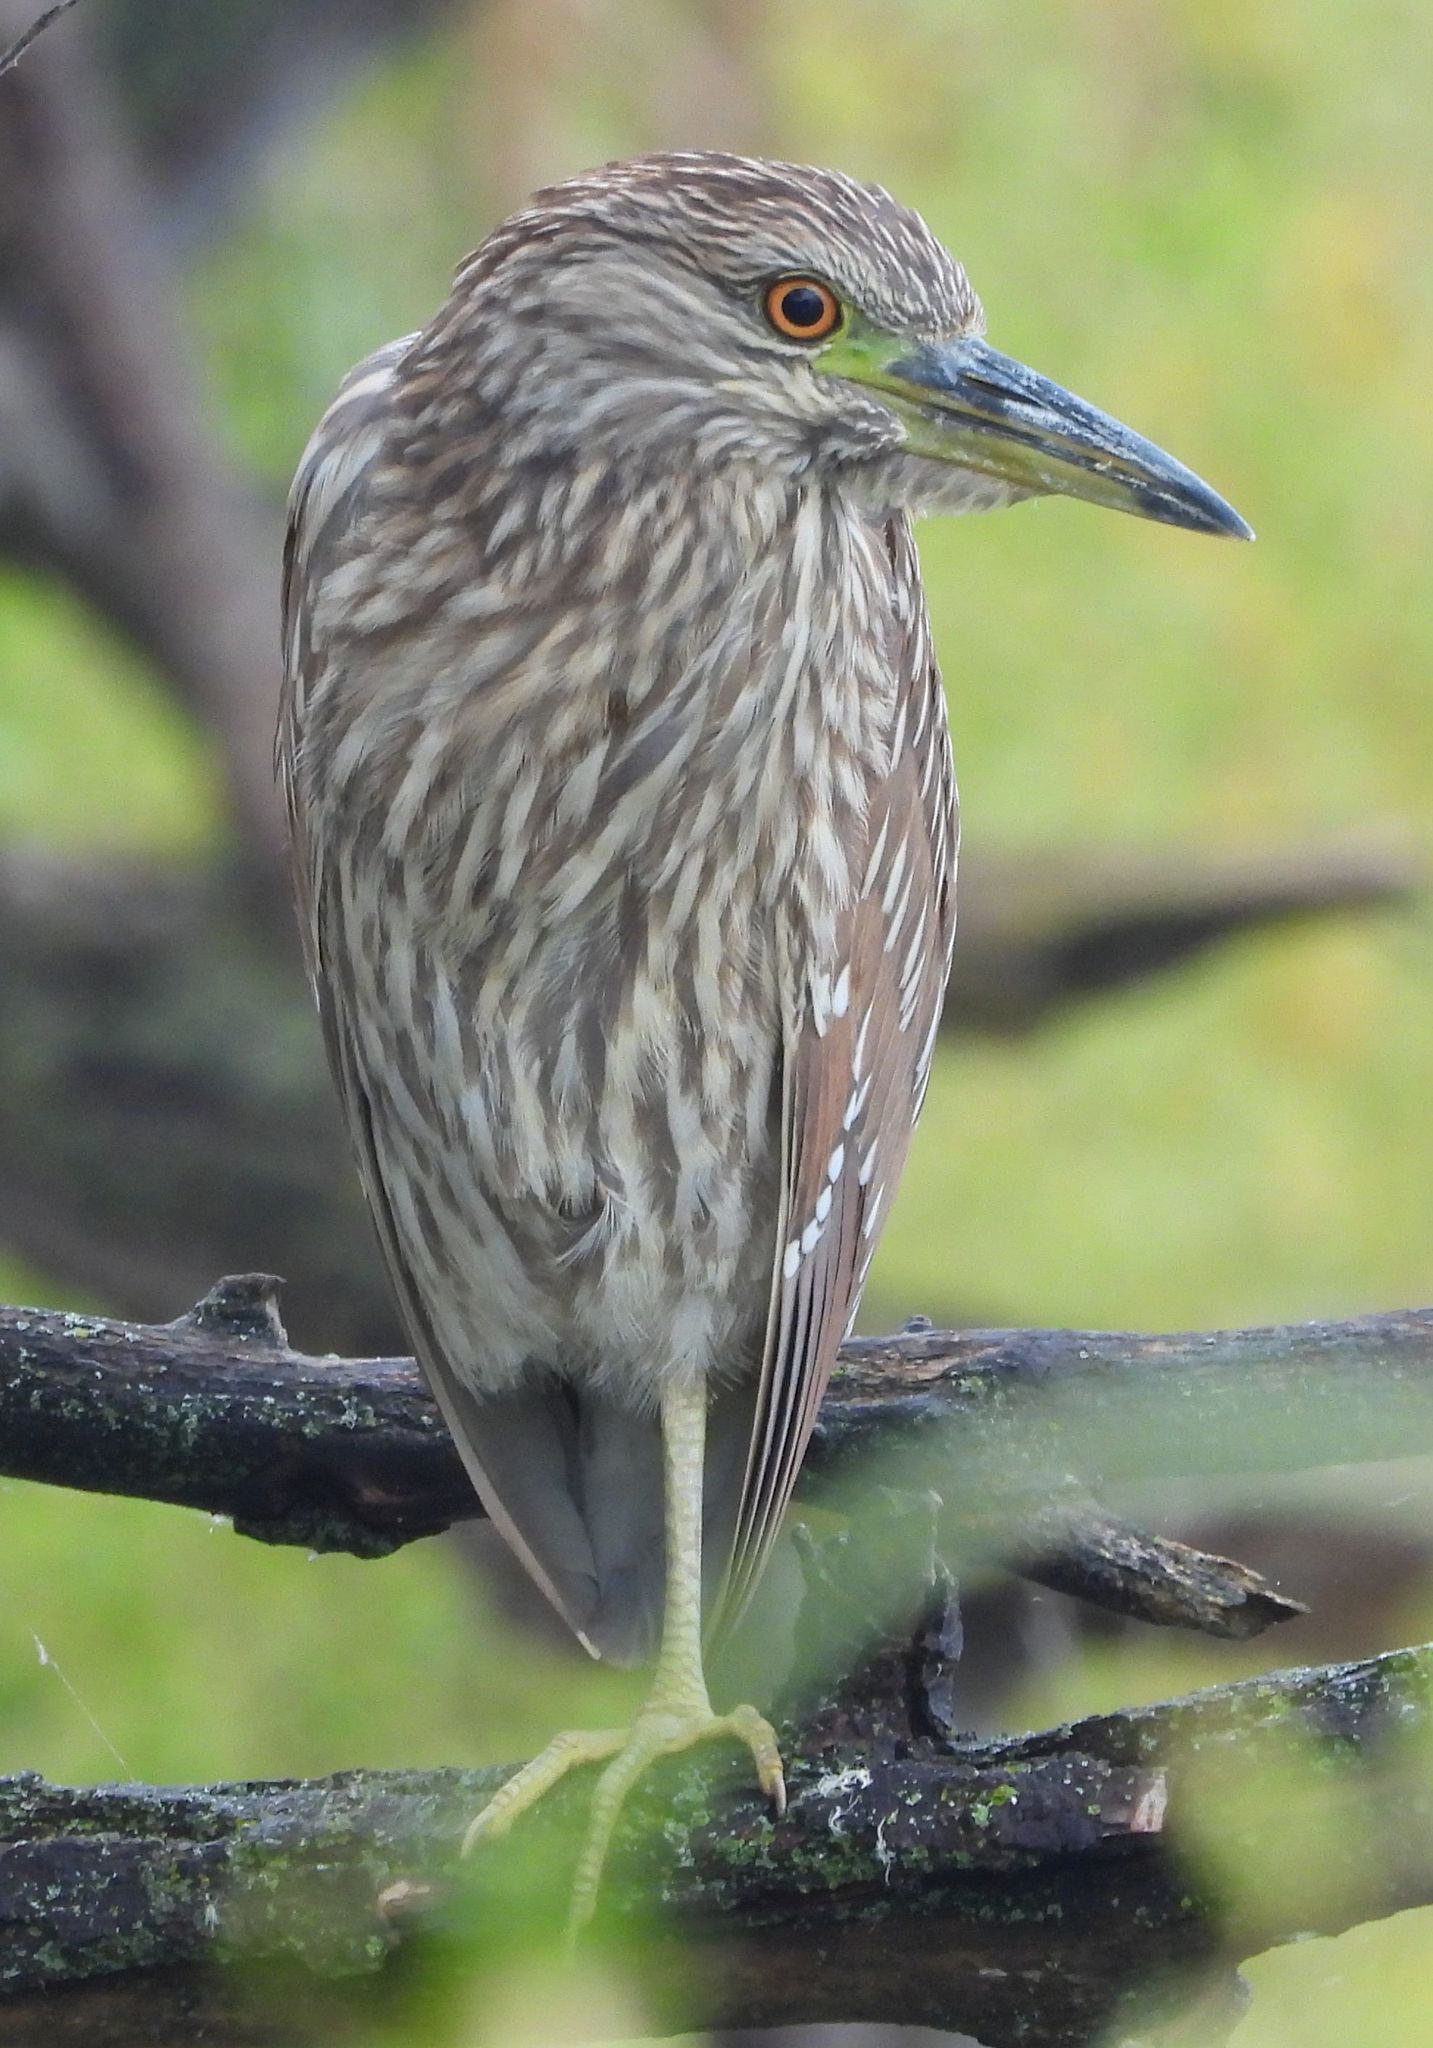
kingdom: Animalia
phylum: Chordata
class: Aves
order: Pelecaniformes
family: Ardeidae
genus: Nycticorax
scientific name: Nycticorax nycticorax
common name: Black-crowned night heron
